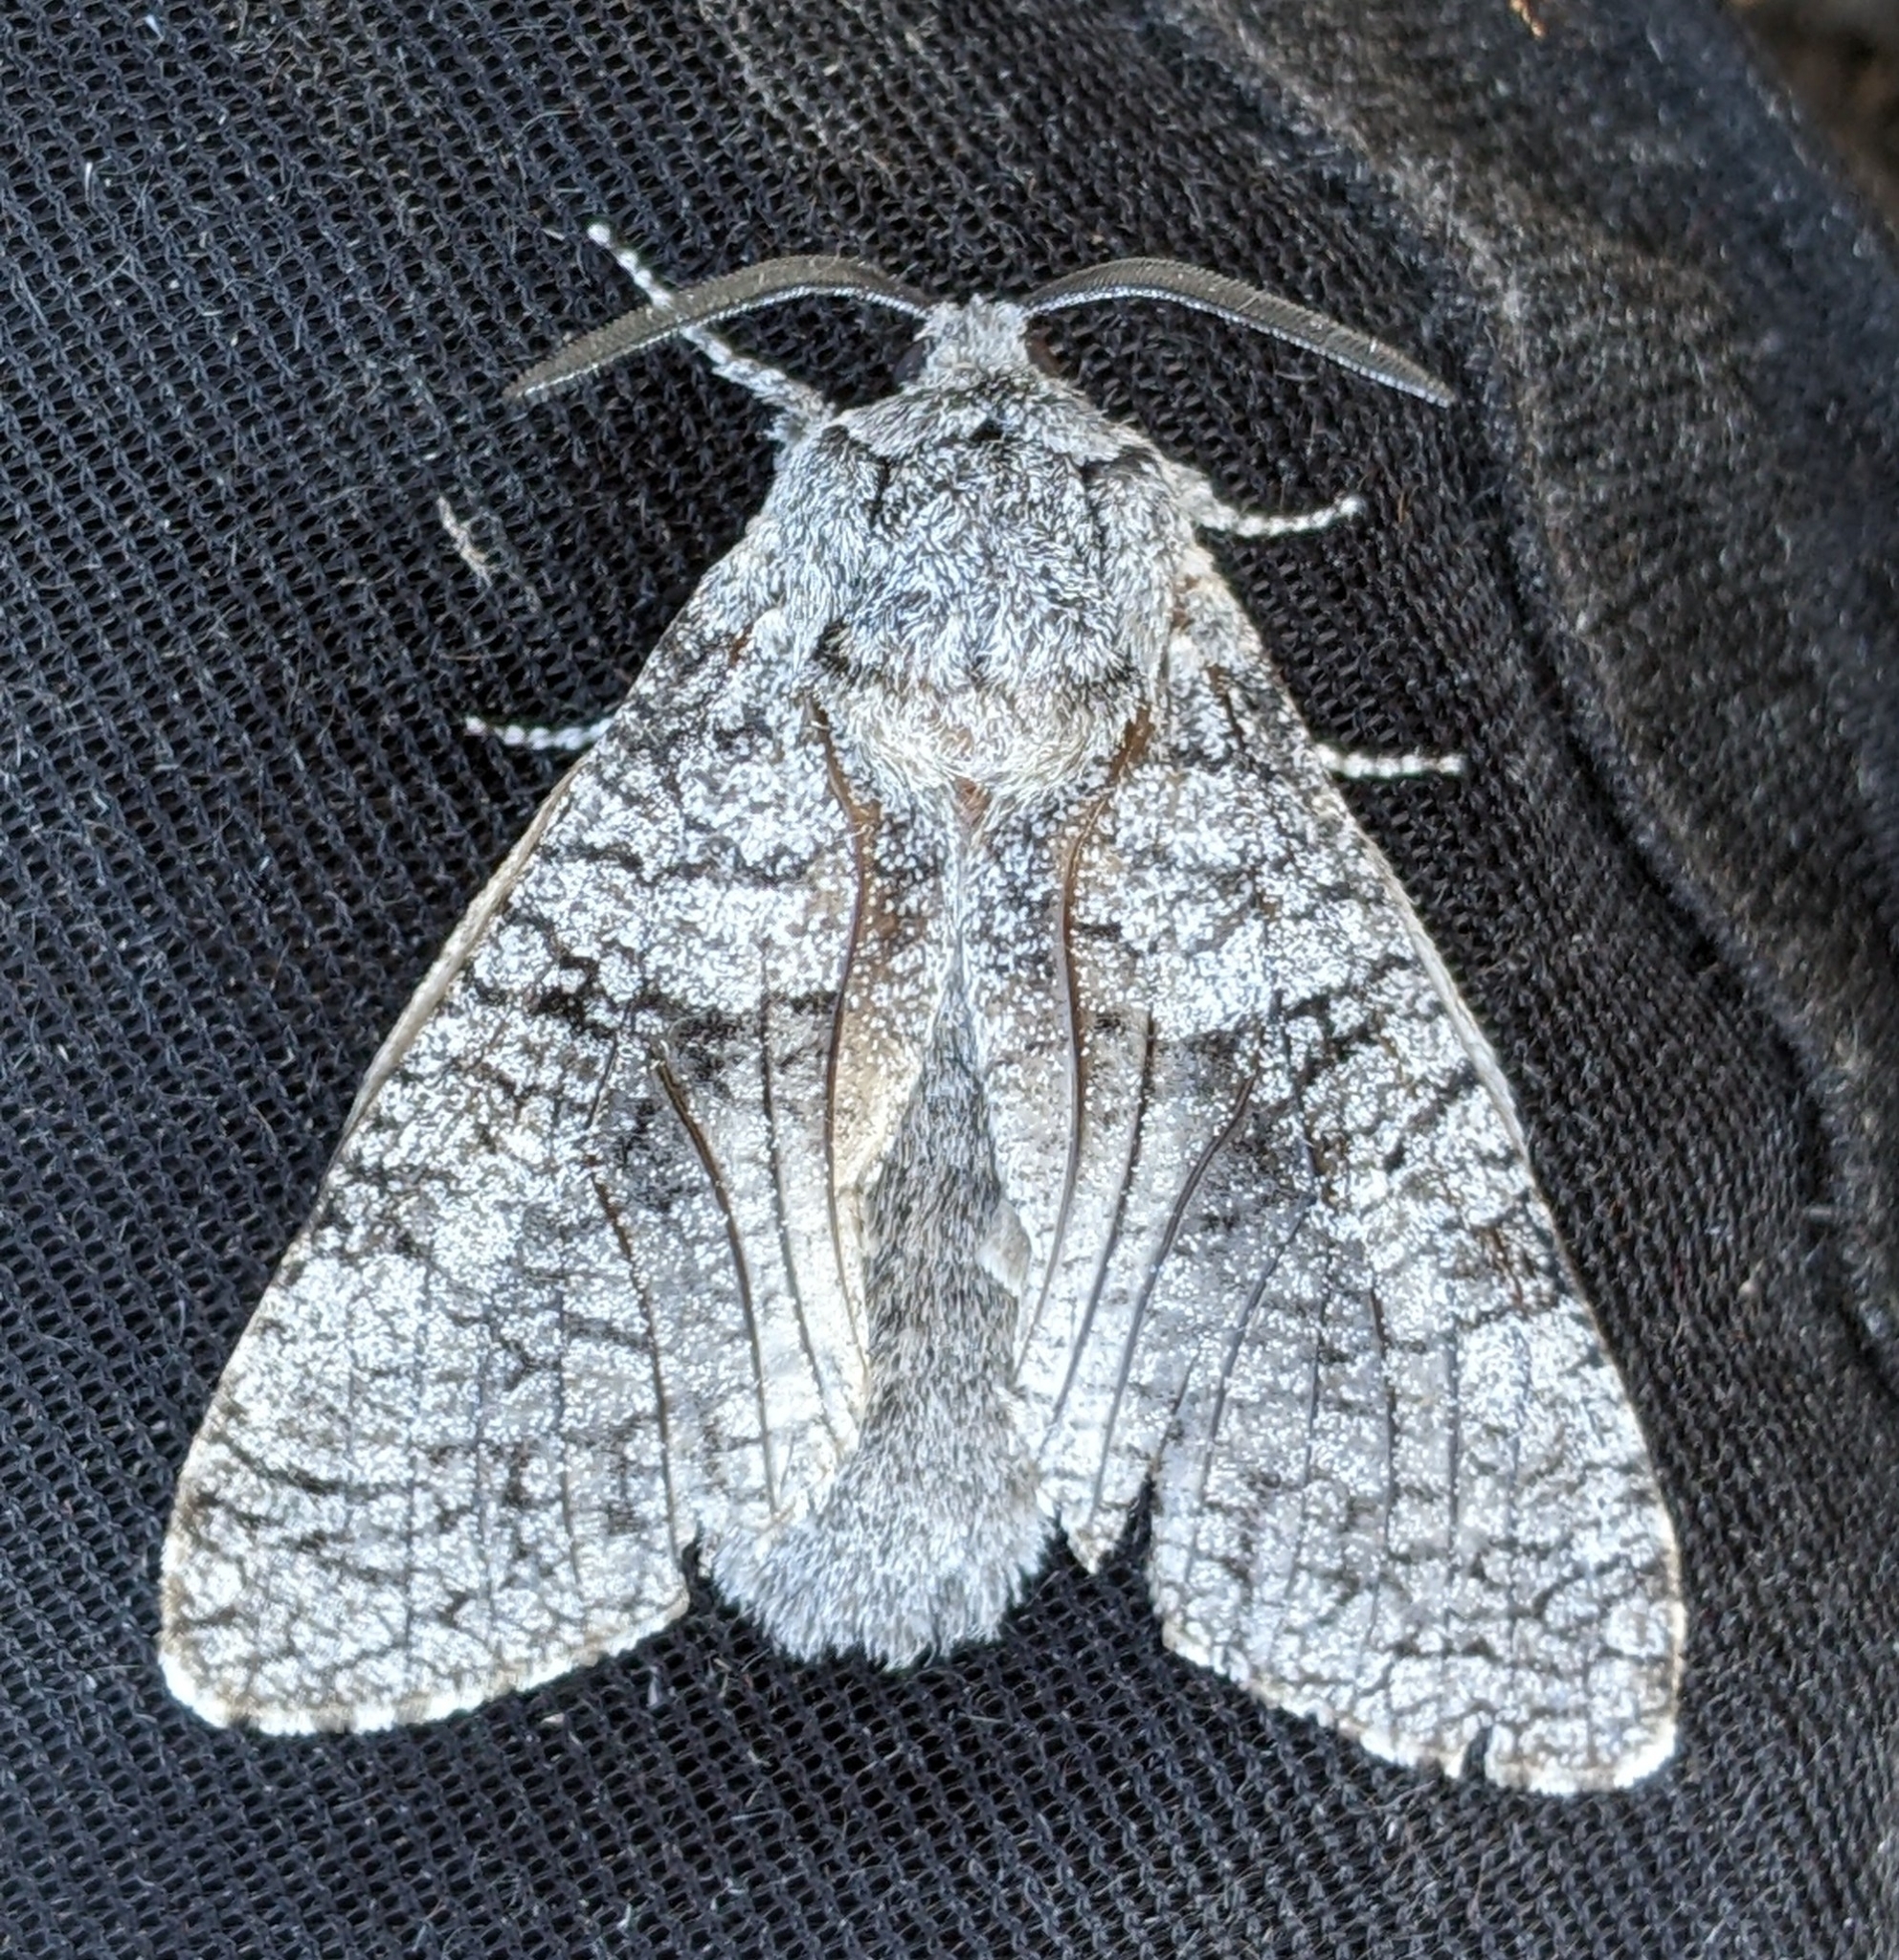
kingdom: Animalia
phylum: Arthropoda
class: Insecta
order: Lepidoptera
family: Cossidae
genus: Acossus
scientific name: Acossus populi
